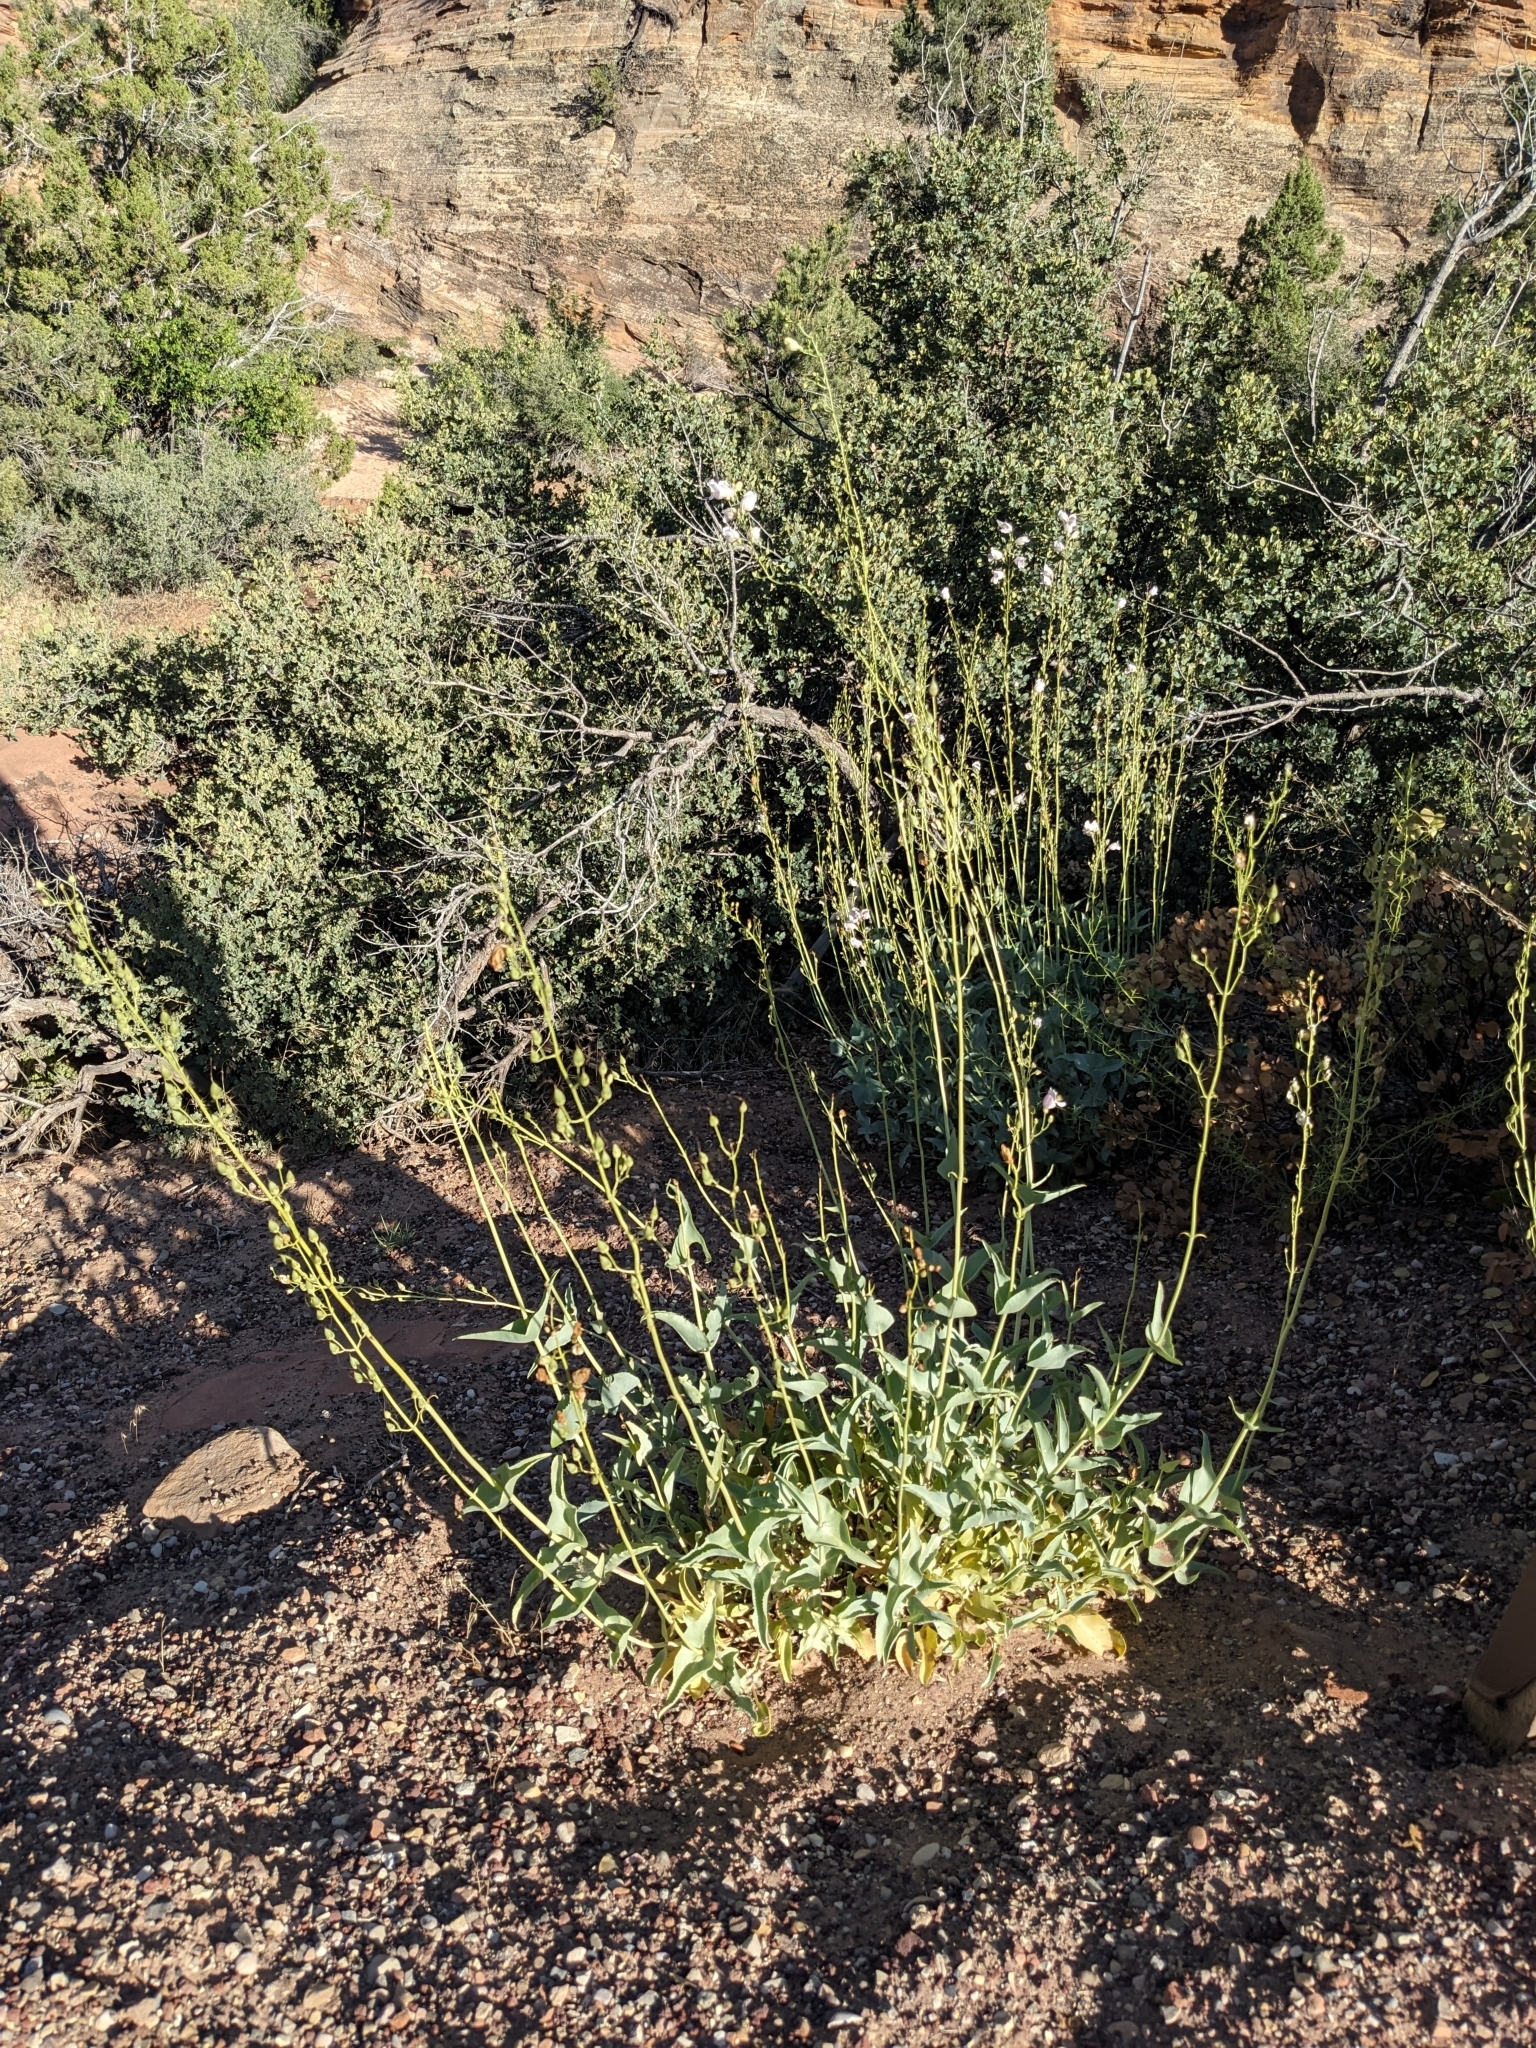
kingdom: Plantae
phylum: Tracheophyta
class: Magnoliopsida
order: Lamiales
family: Plantaginaceae
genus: Penstemon
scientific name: Penstemon palmeri
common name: Palmer penstemon
